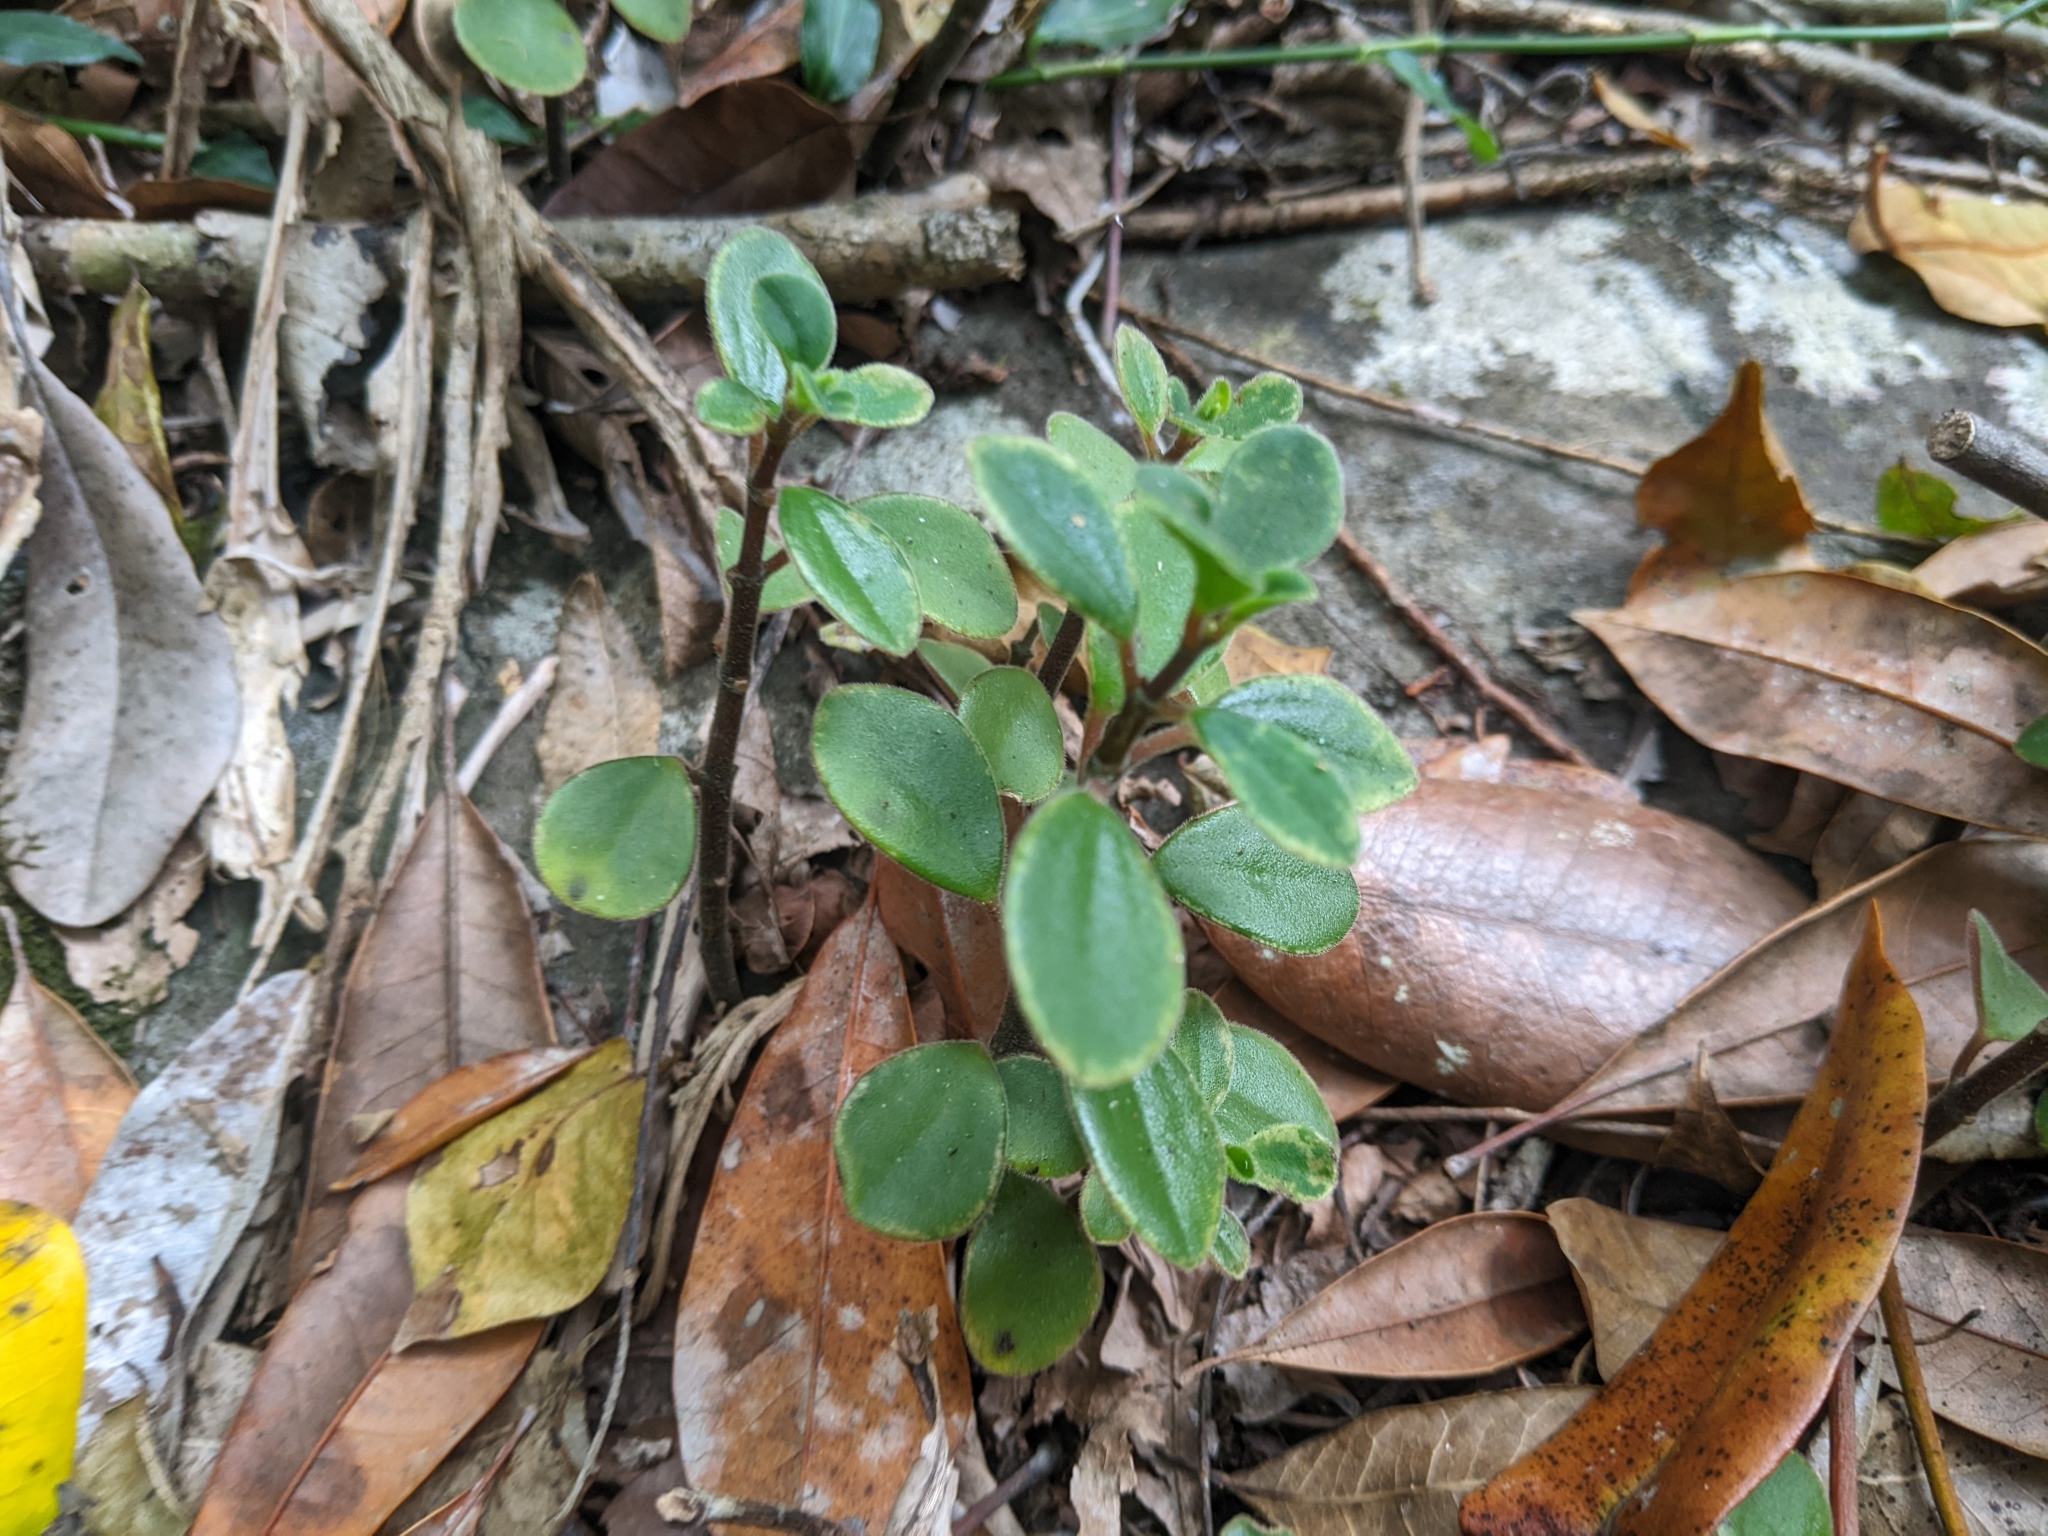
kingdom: Plantae
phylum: Tracheophyta
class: Magnoliopsida
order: Piperales
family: Piperaceae
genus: Peperomia
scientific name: Peperomia leptostachya
